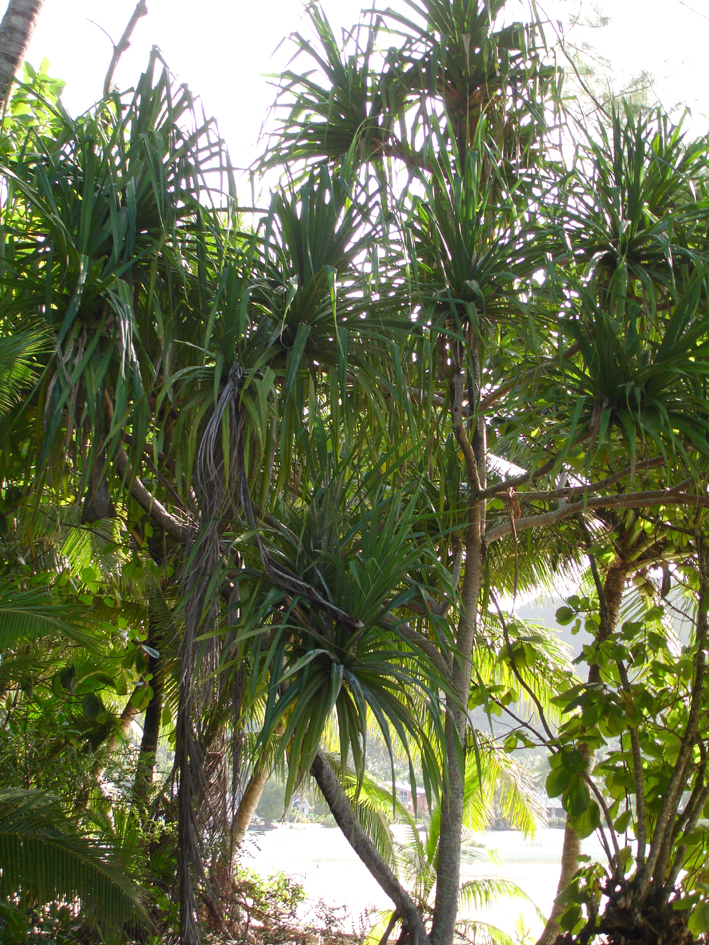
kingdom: Plantae
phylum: Tracheophyta
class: Liliopsida
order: Pandanales
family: Pandanaceae
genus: Pandanus
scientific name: Pandanus tectorius
